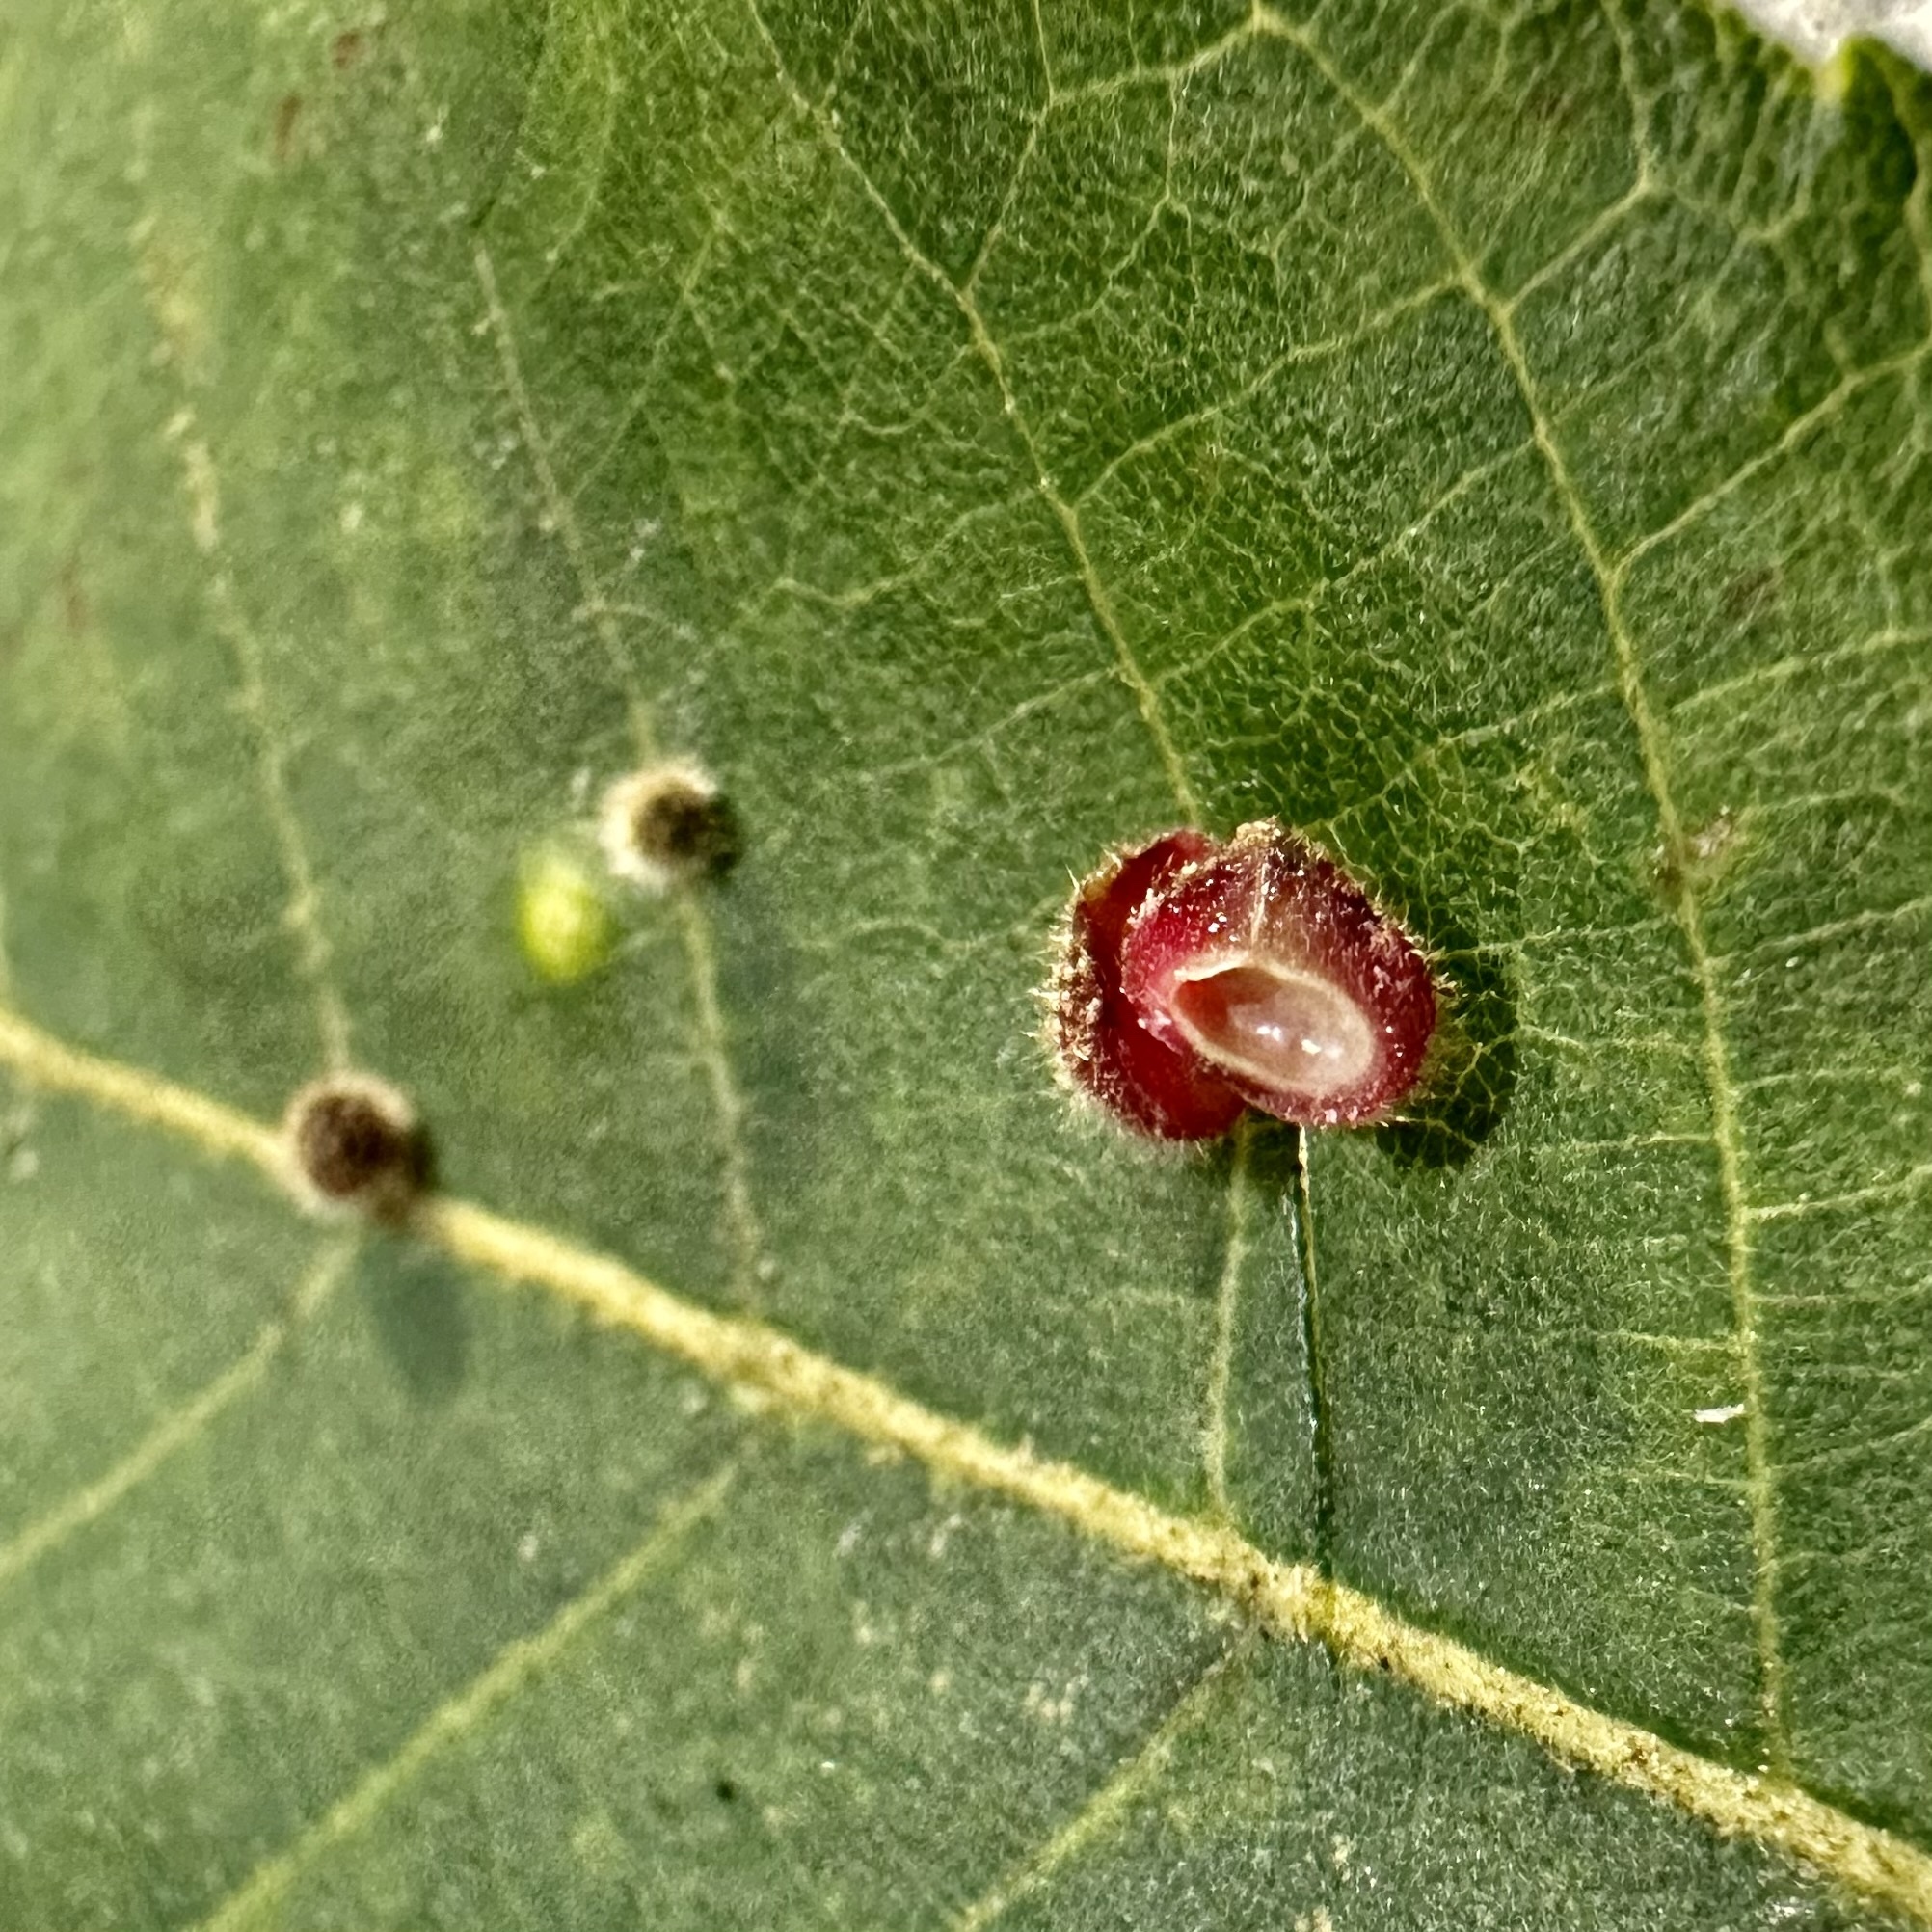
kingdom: Animalia
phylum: Arthropoda
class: Insecta
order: Diptera
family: Cecidomyiidae
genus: Caryomyia
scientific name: Caryomyia turbanella
